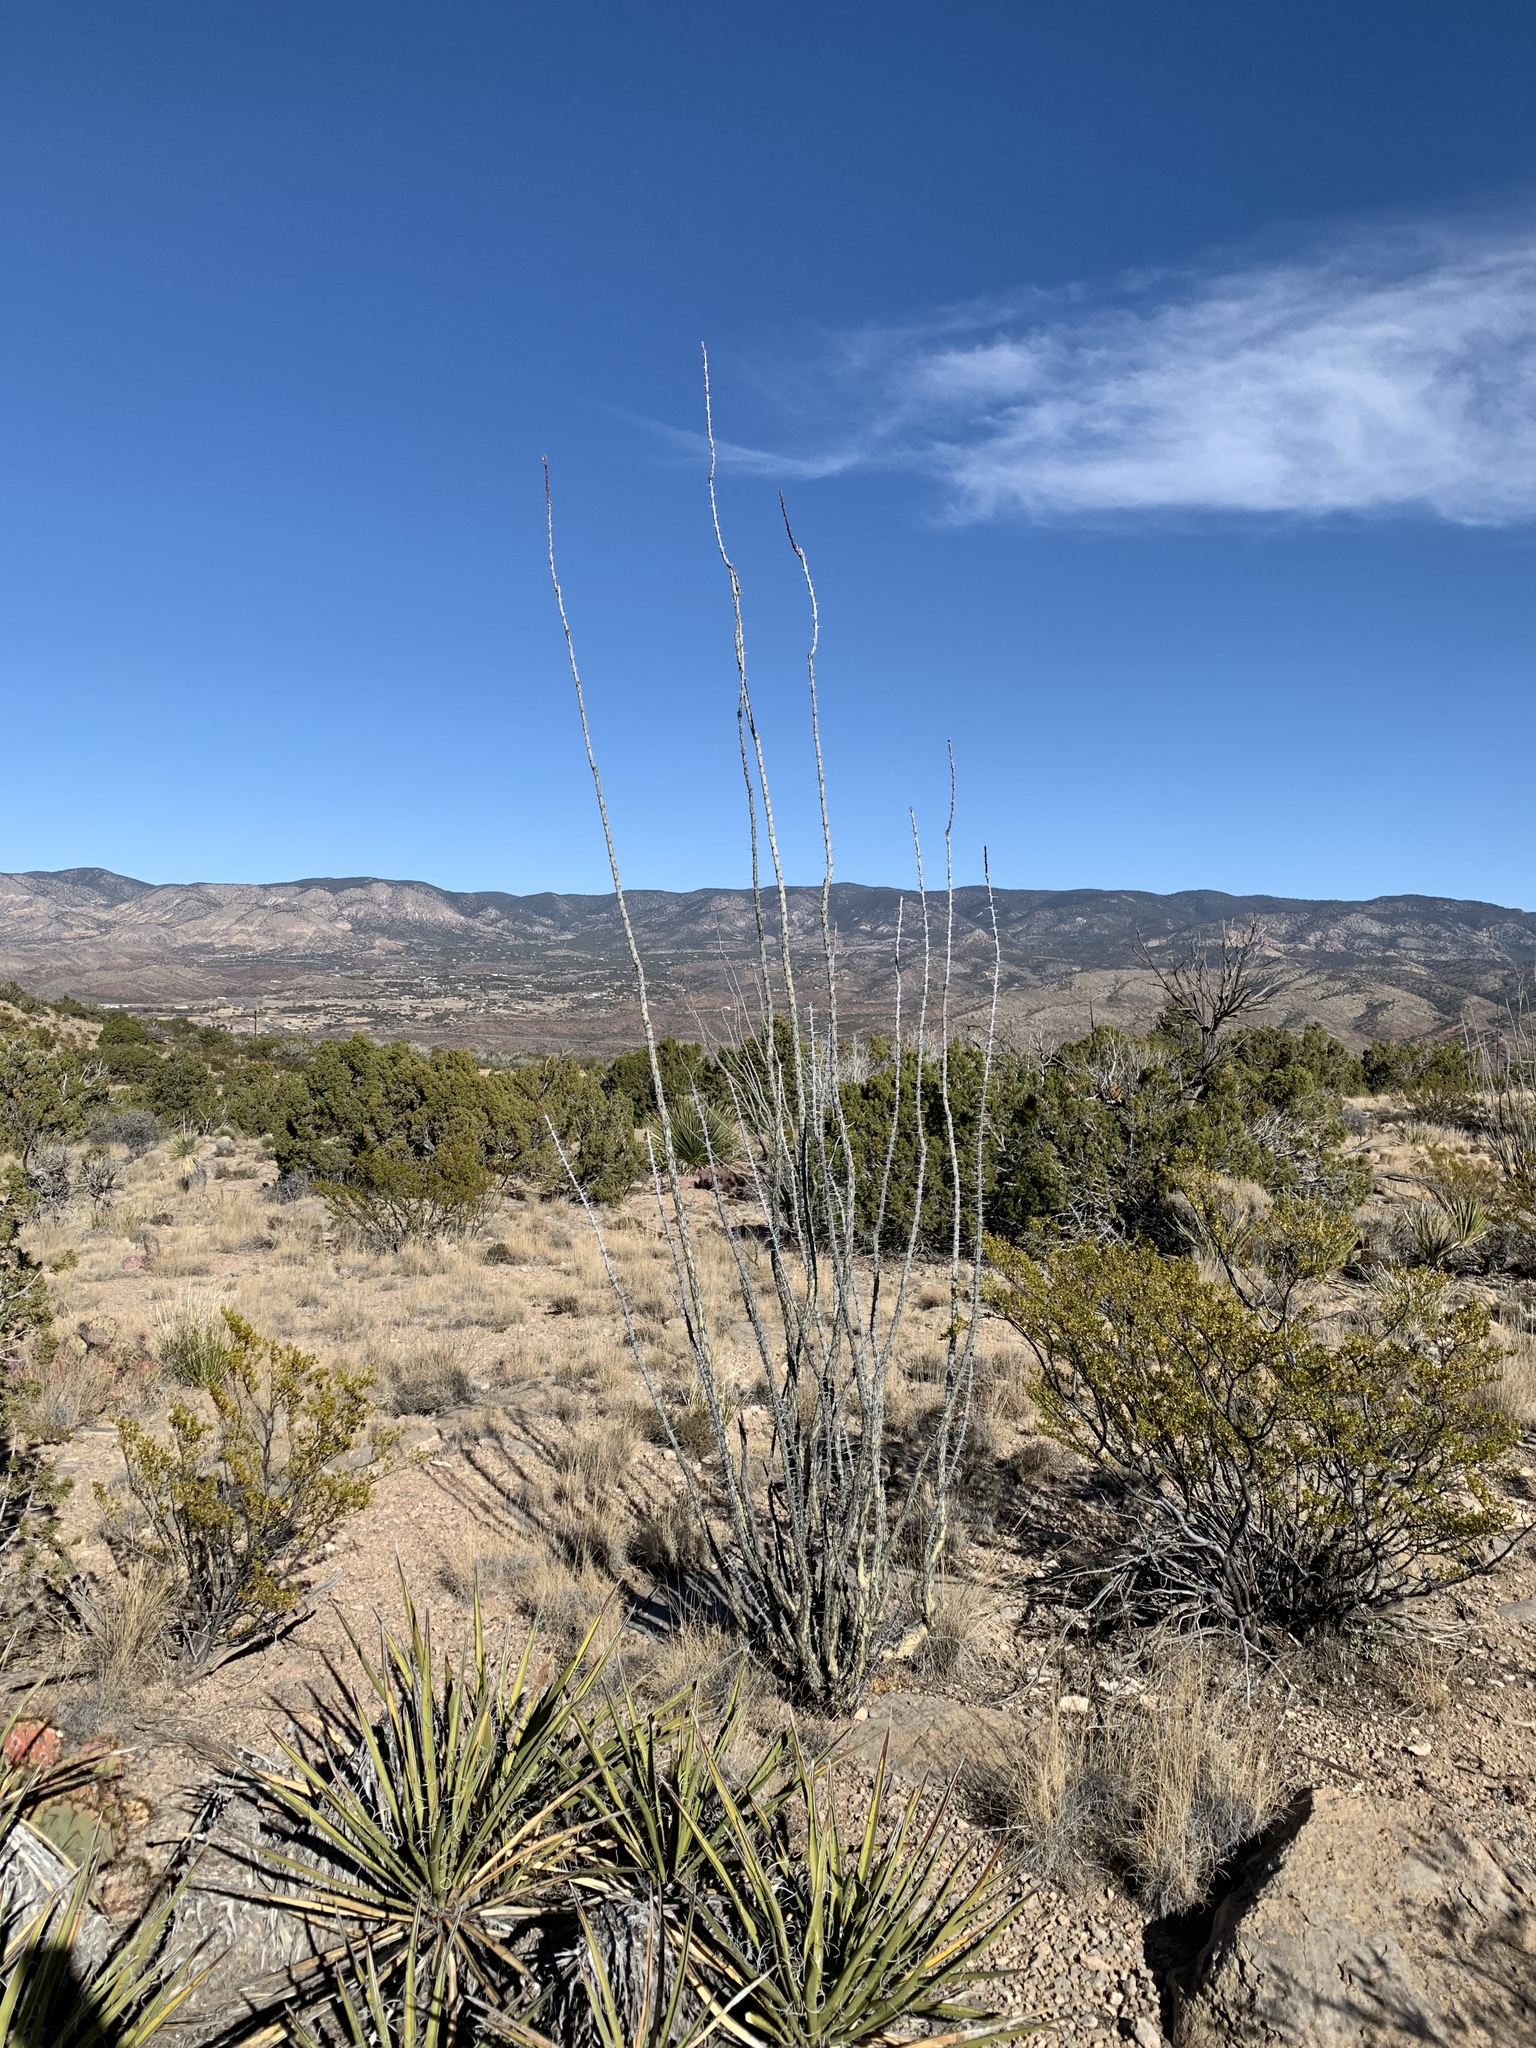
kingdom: Plantae
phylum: Tracheophyta
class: Magnoliopsida
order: Ericales
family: Fouquieriaceae
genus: Fouquieria
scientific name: Fouquieria splendens
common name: Vine-cactus
